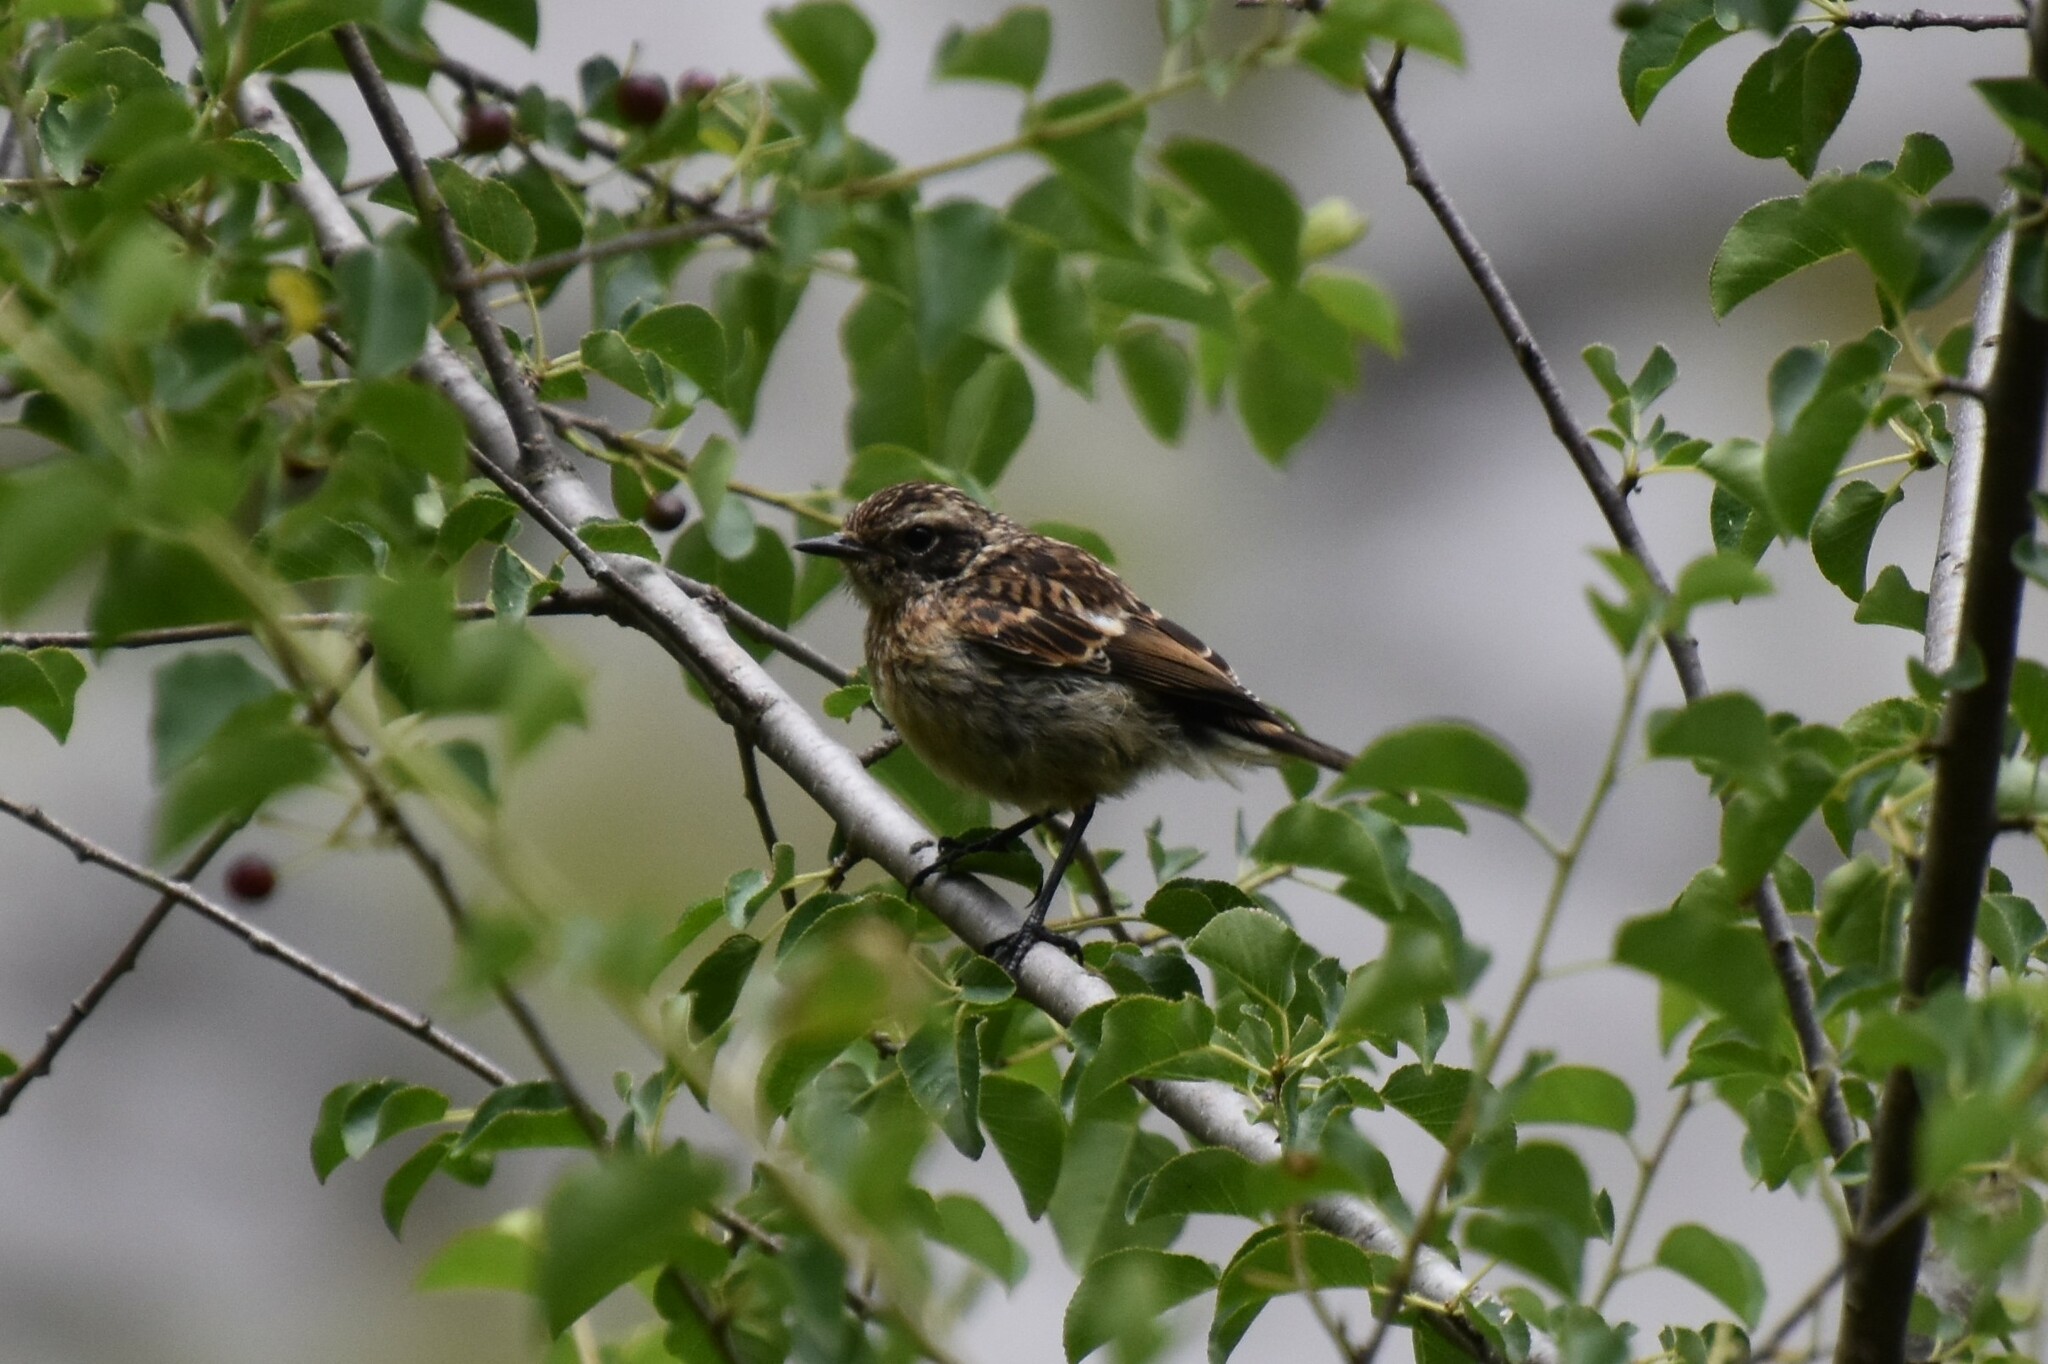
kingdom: Animalia
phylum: Chordata
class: Aves
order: Passeriformes
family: Muscicapidae
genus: Saxicola
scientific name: Saxicola rubicola
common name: European stonechat
